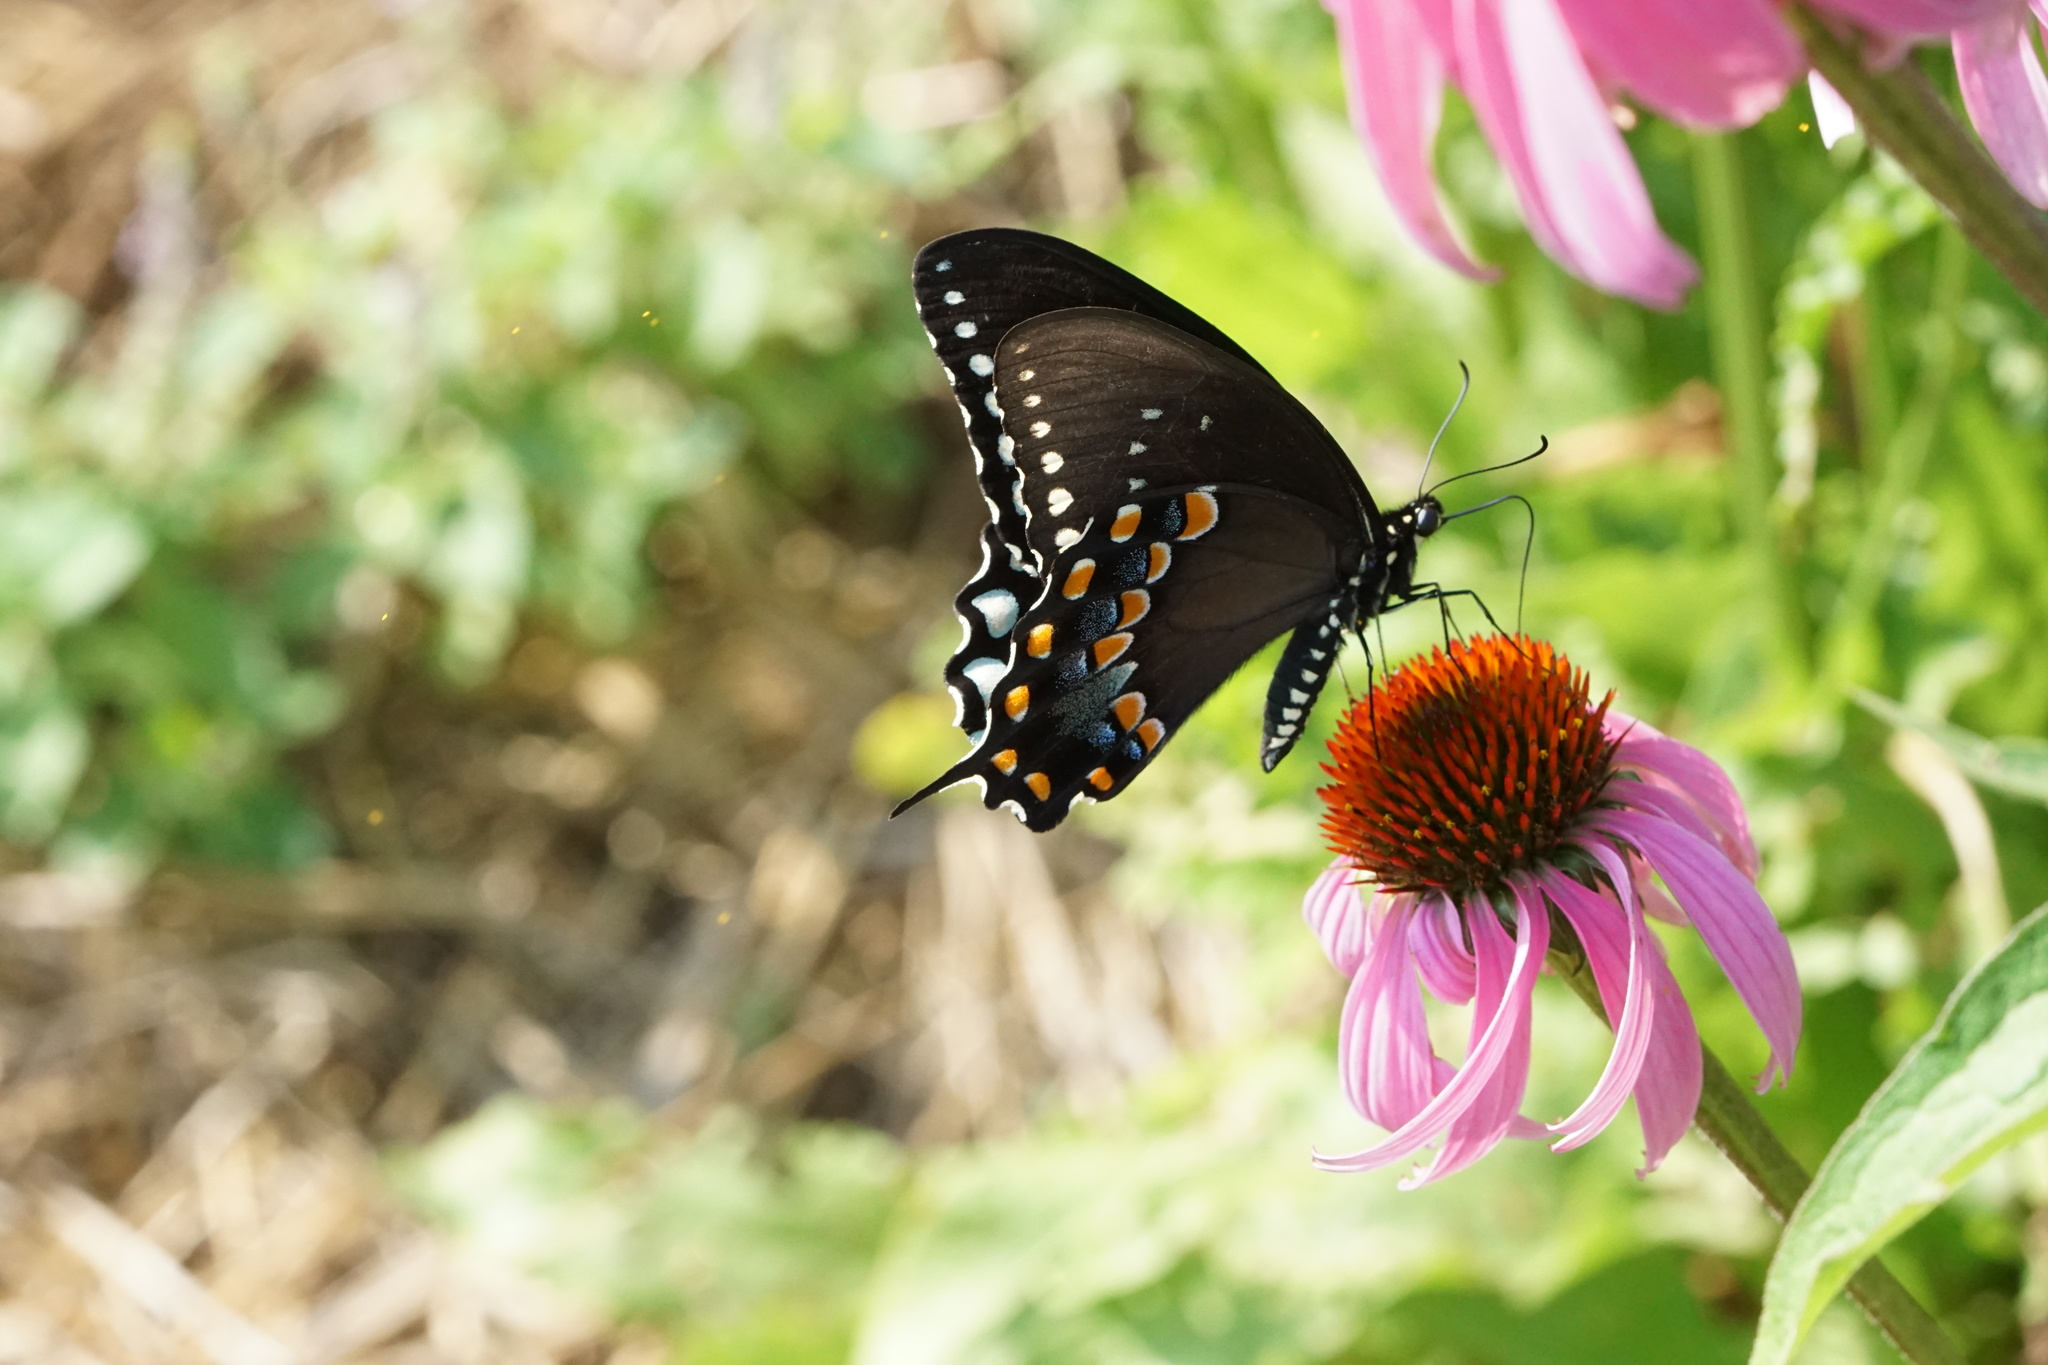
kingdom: Animalia
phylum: Arthropoda
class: Insecta
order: Lepidoptera
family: Papilionidae
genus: Papilio
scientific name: Papilio troilus
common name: Spicebush swallowtail
